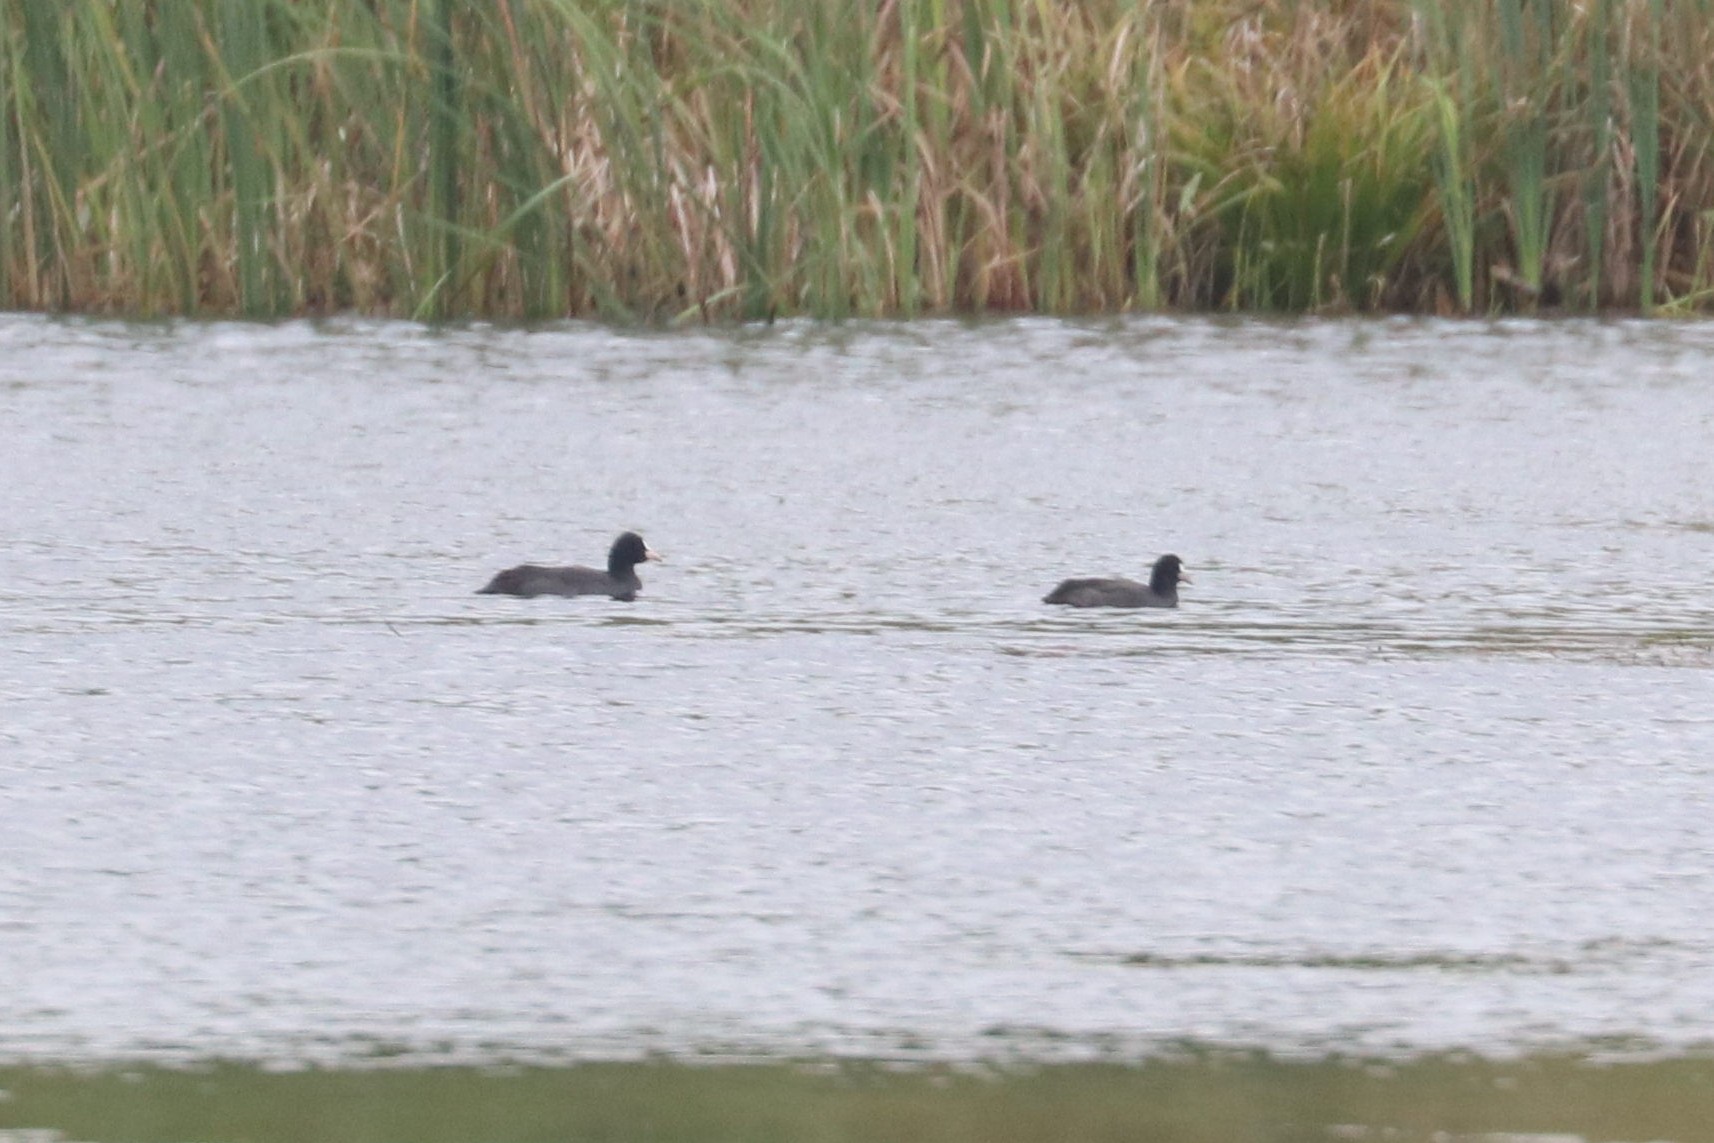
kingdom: Animalia
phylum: Chordata
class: Aves
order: Gruiformes
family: Rallidae
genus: Fulica
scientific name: Fulica atra
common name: Eurasian coot
